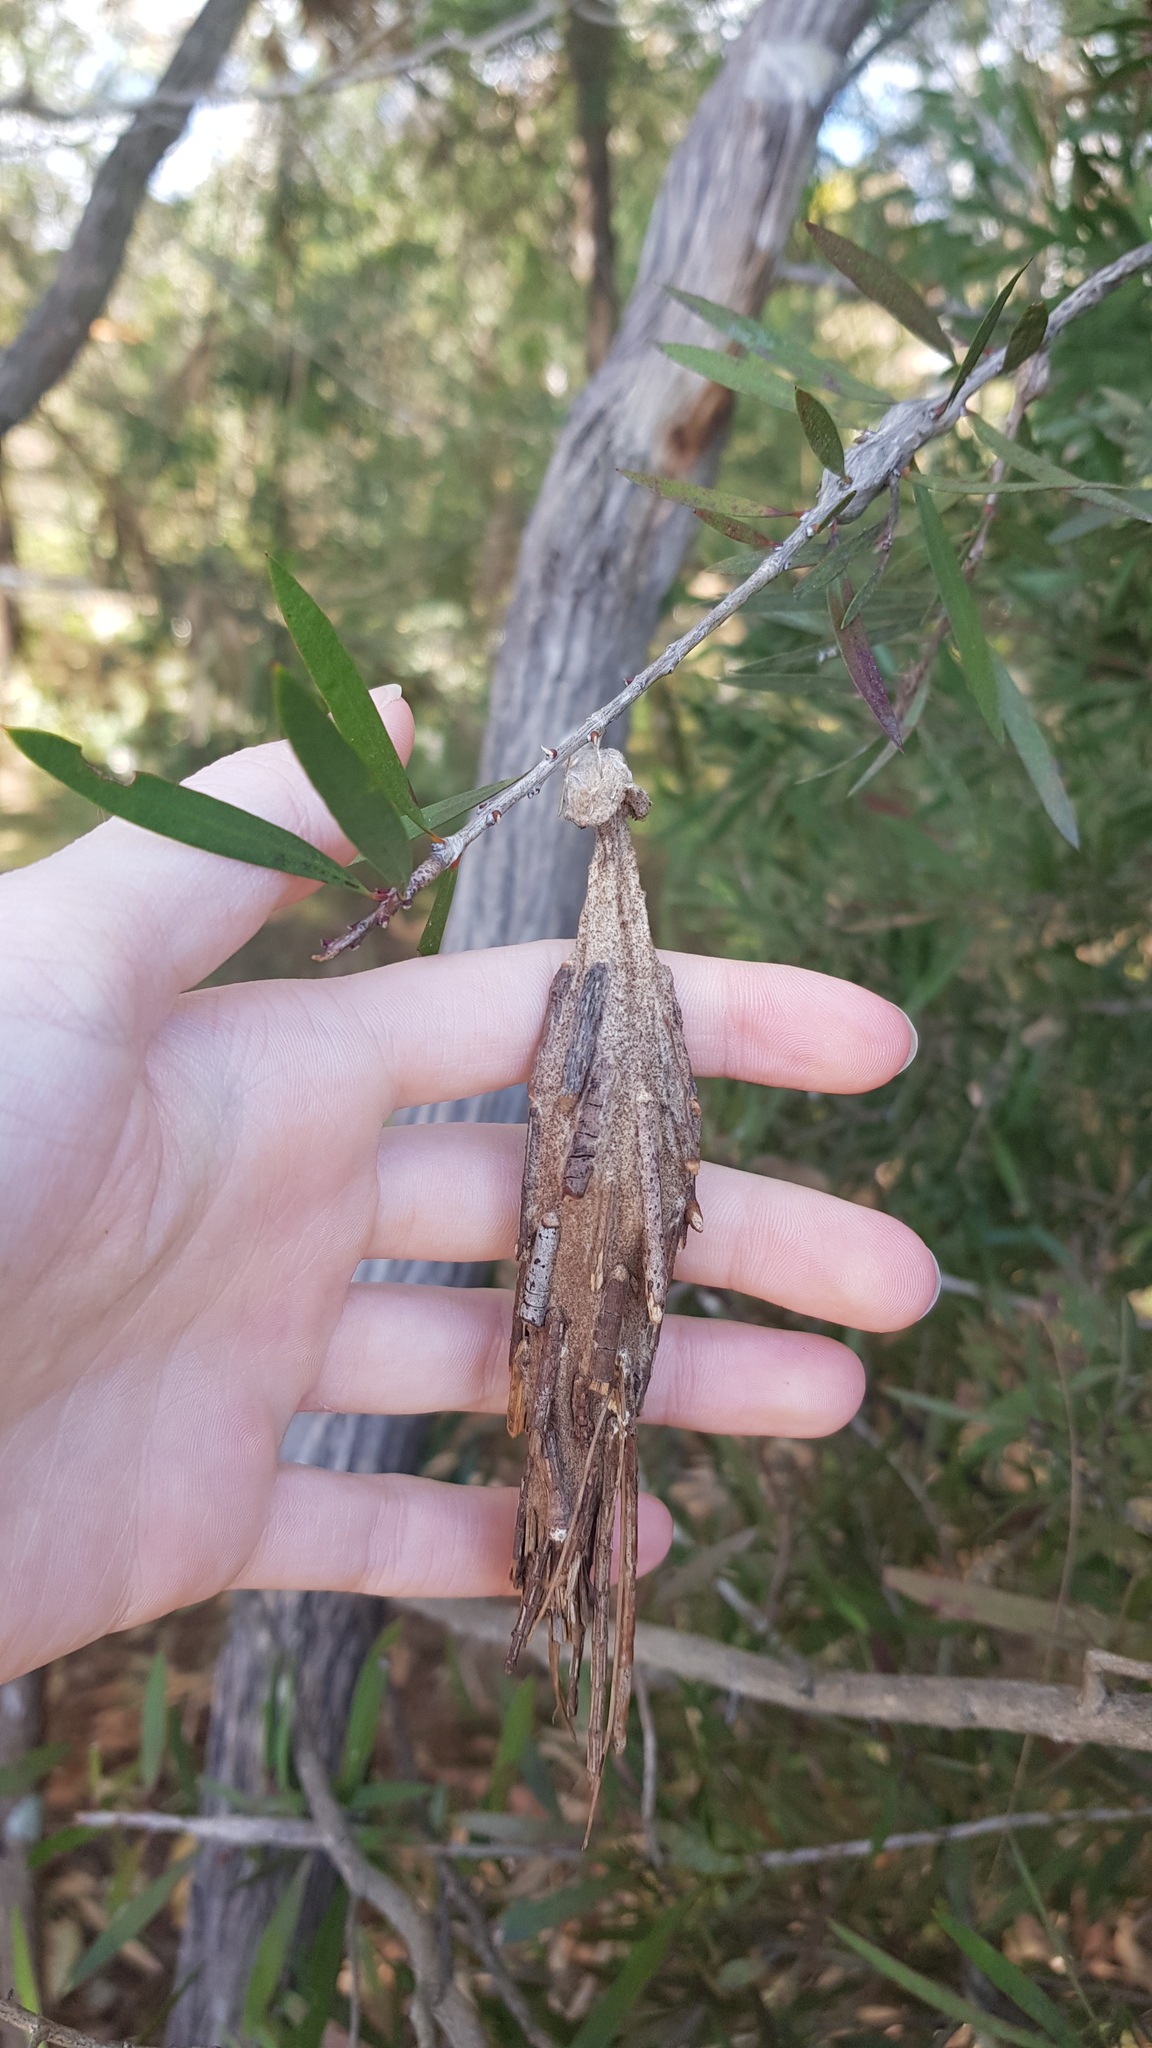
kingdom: Animalia
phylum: Arthropoda
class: Insecta
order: Lepidoptera
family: Psychidae
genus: Metura
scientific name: Metura elongatus
